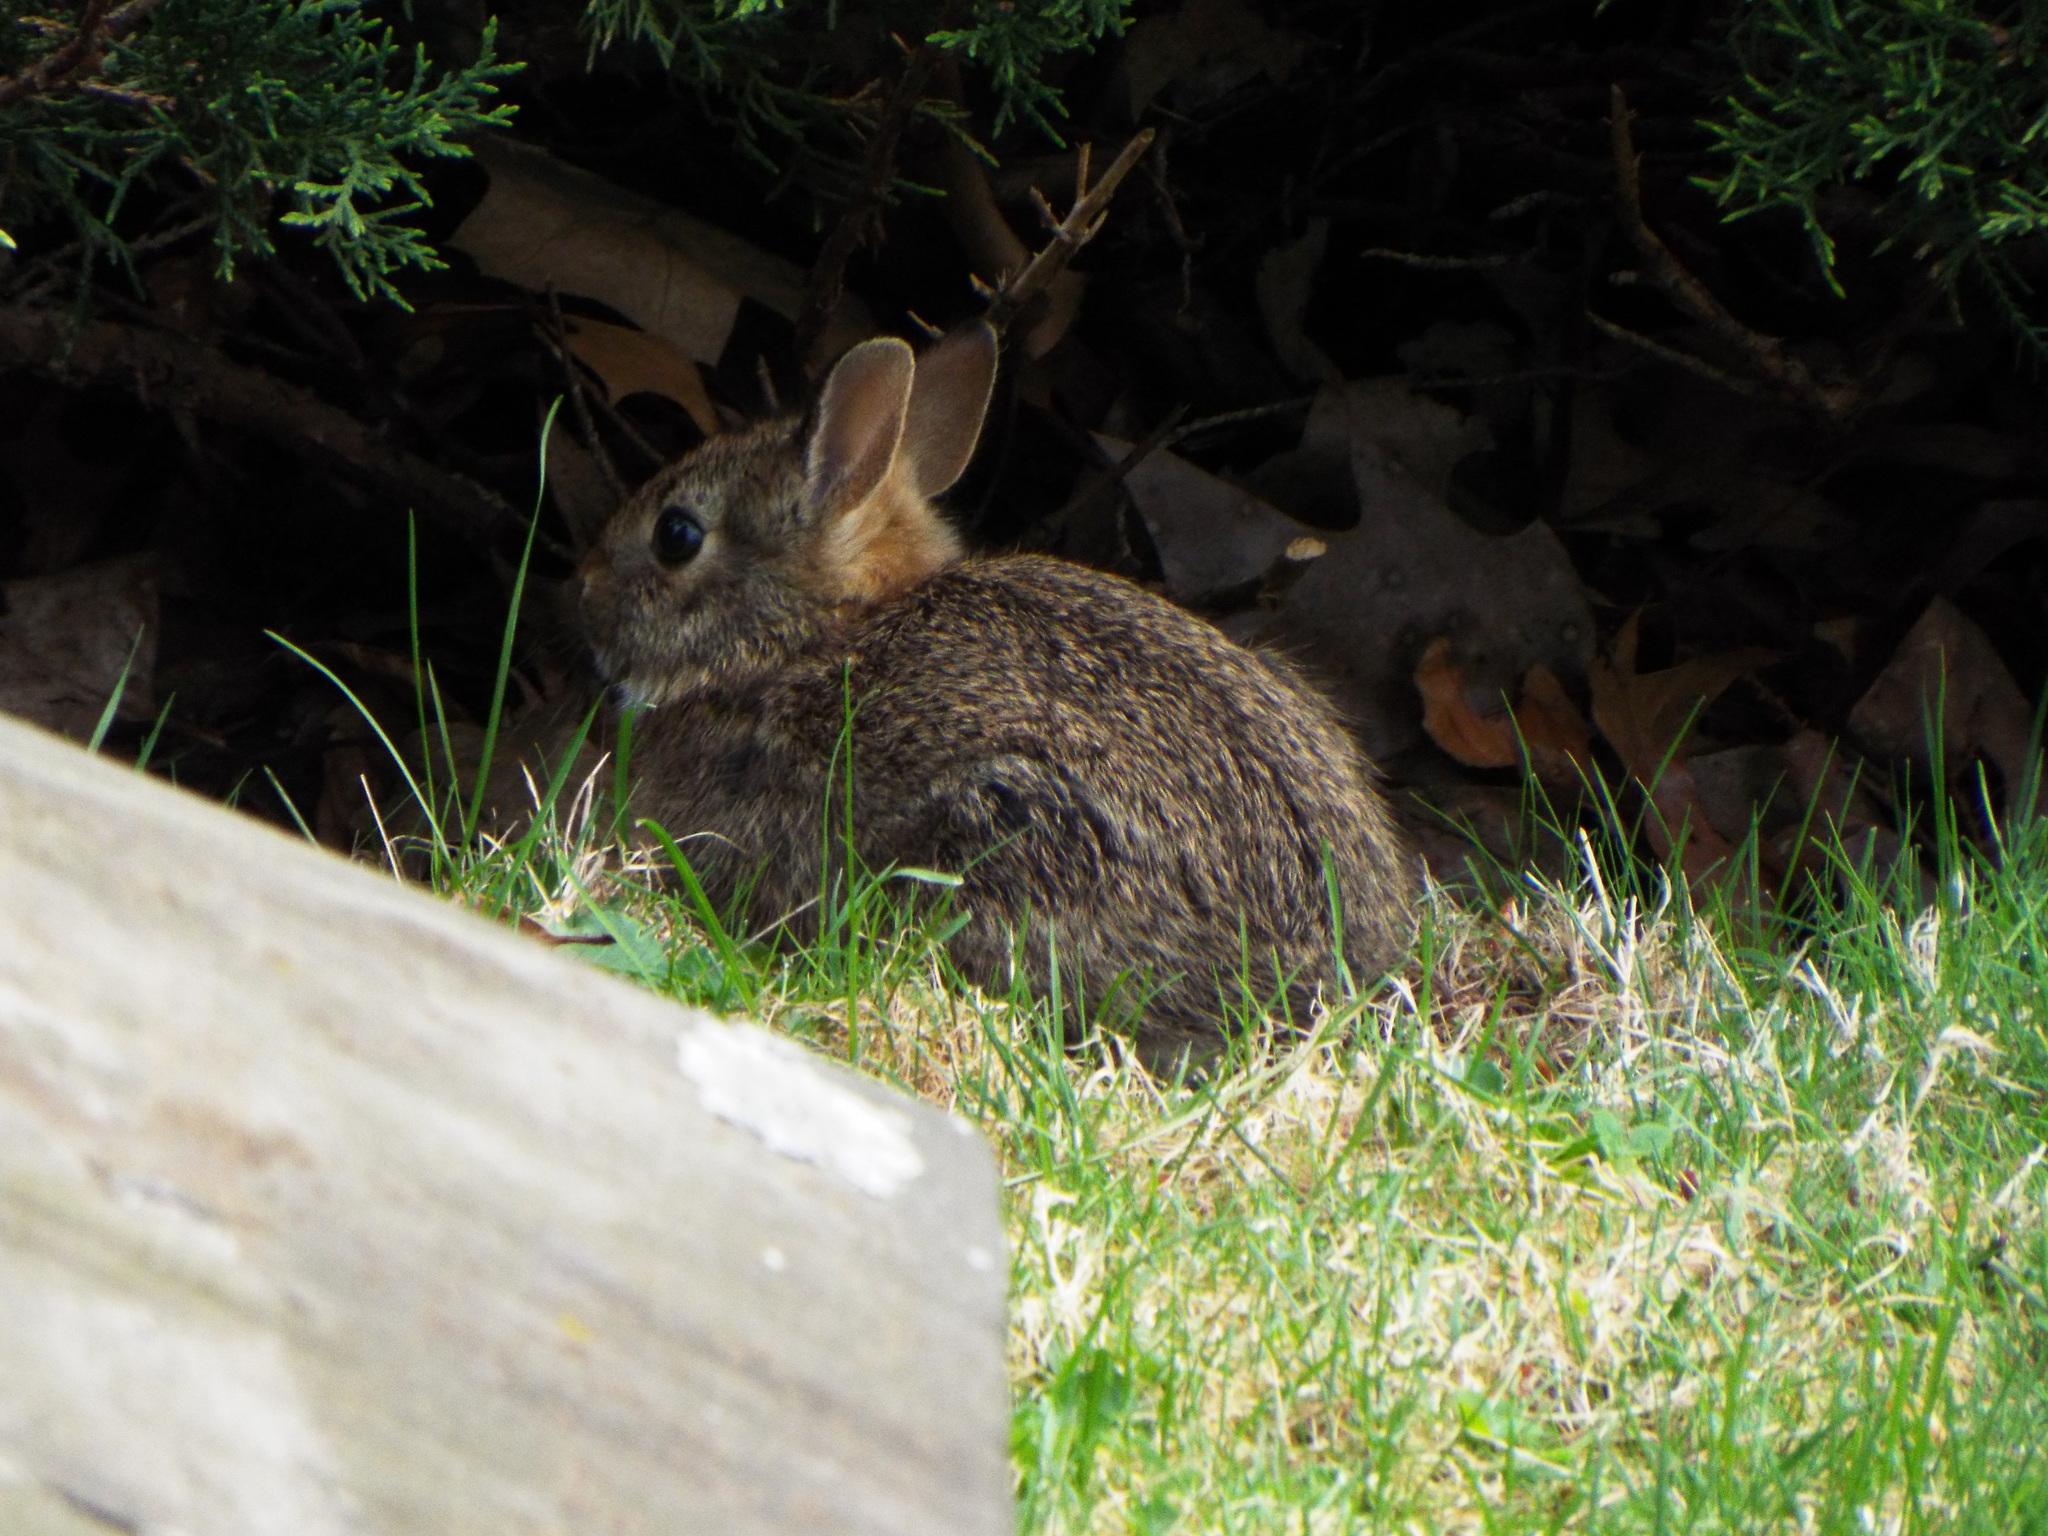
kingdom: Animalia
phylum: Chordata
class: Mammalia
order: Lagomorpha
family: Leporidae
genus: Sylvilagus
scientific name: Sylvilagus floridanus
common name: Eastern cottontail
